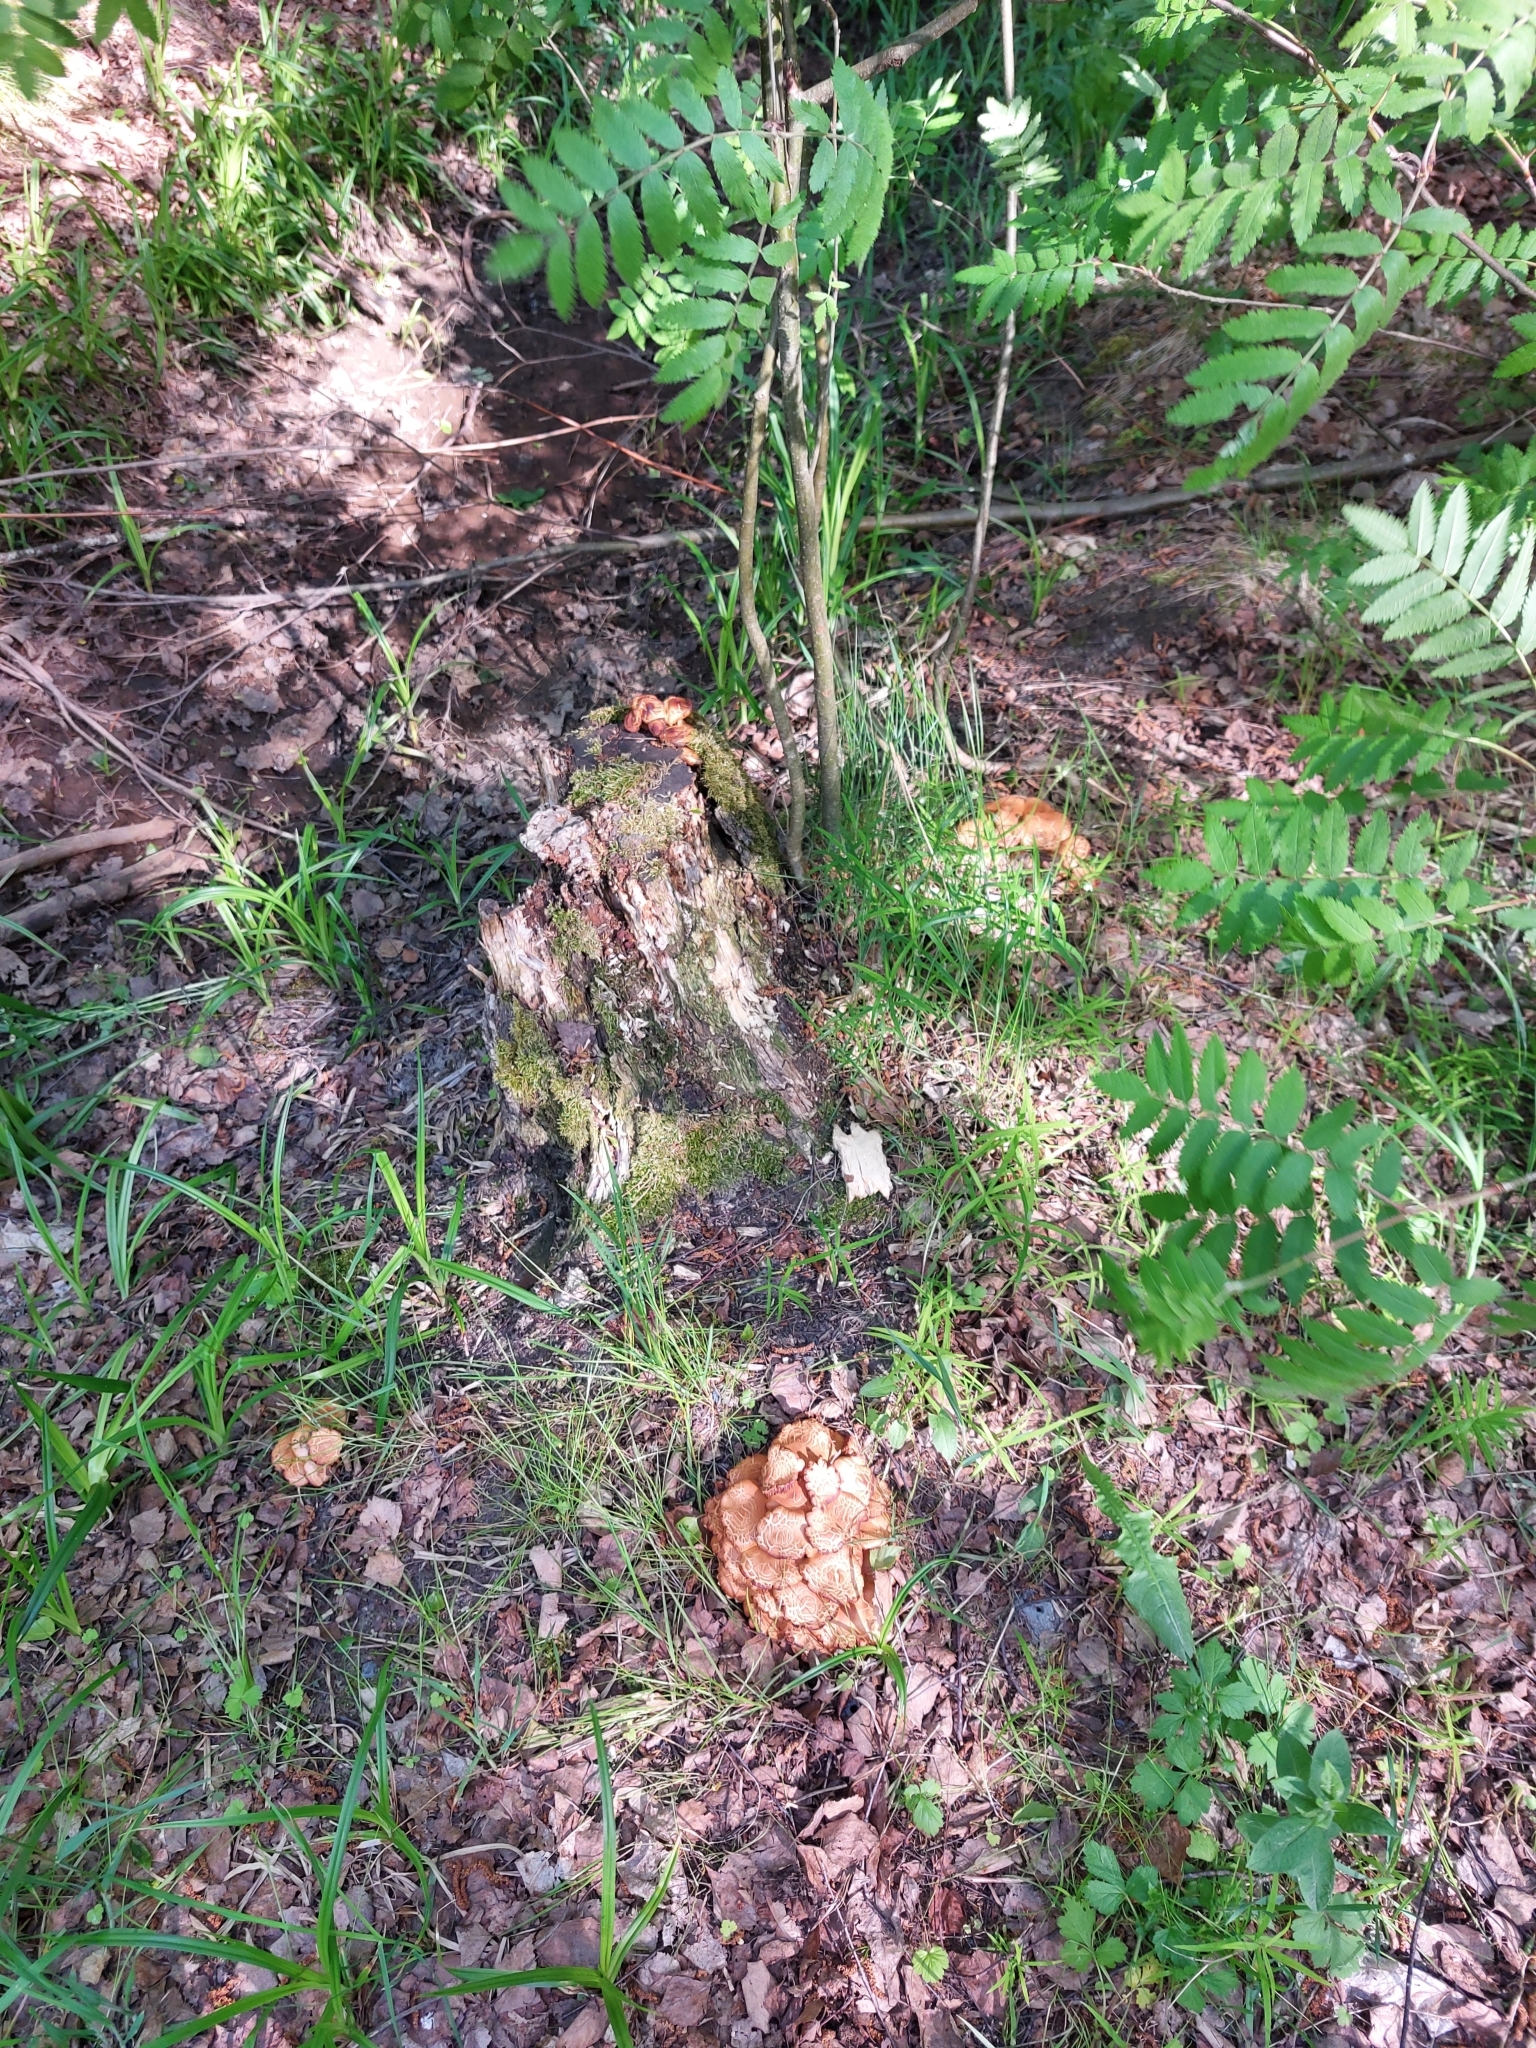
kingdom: Fungi
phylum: Basidiomycota
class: Agaricomycetes
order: Agaricales
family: Strophariaceae
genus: Kuehneromyces
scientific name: Kuehneromyces mutabilis
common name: Sheathed woodtuft
